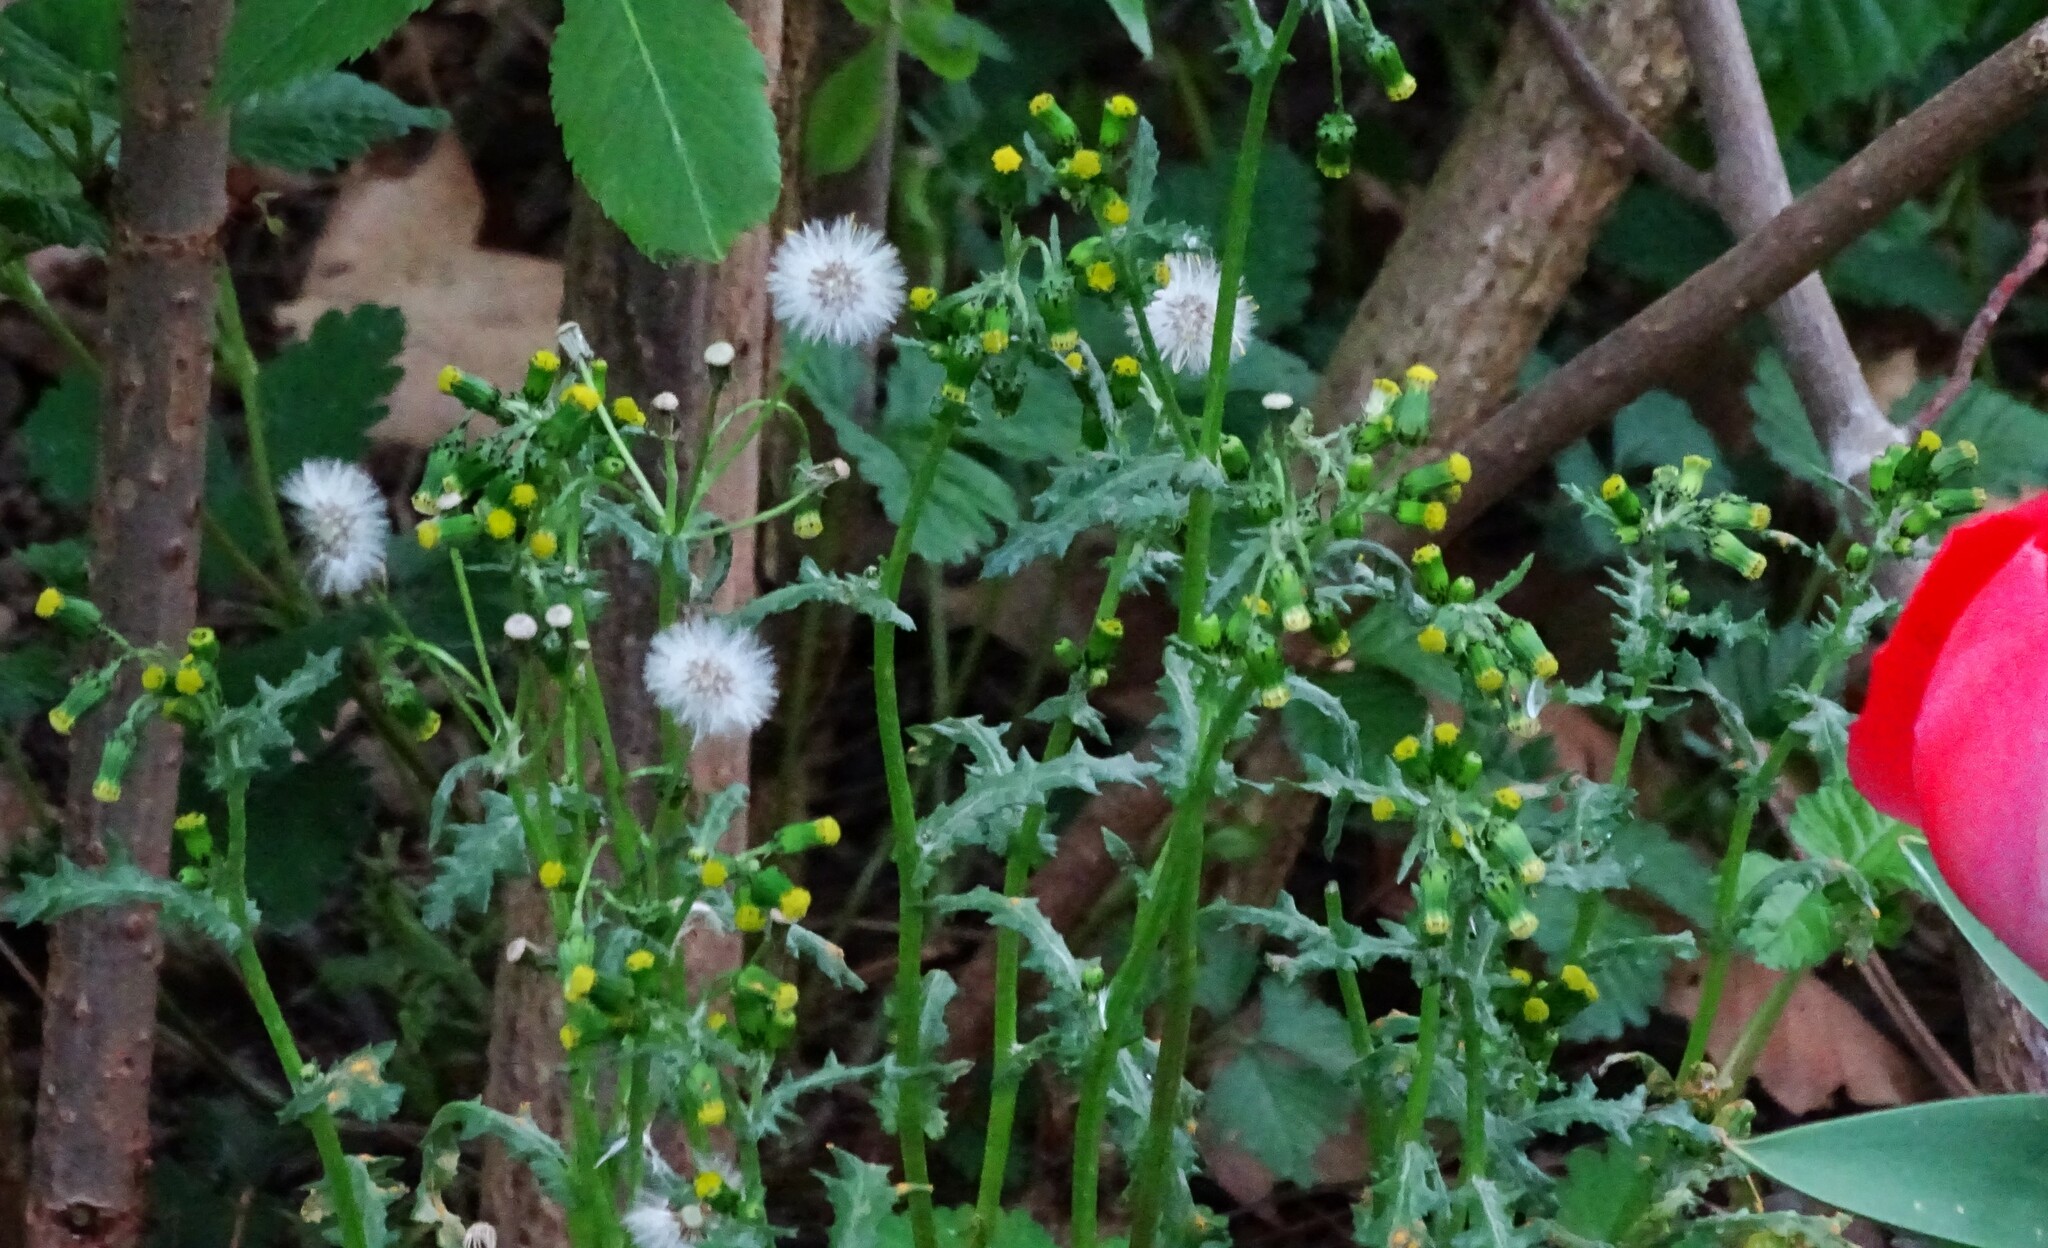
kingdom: Plantae
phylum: Tracheophyta
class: Magnoliopsida
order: Asterales
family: Asteraceae
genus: Senecio
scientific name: Senecio vulgaris
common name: Old-man-in-the-spring
